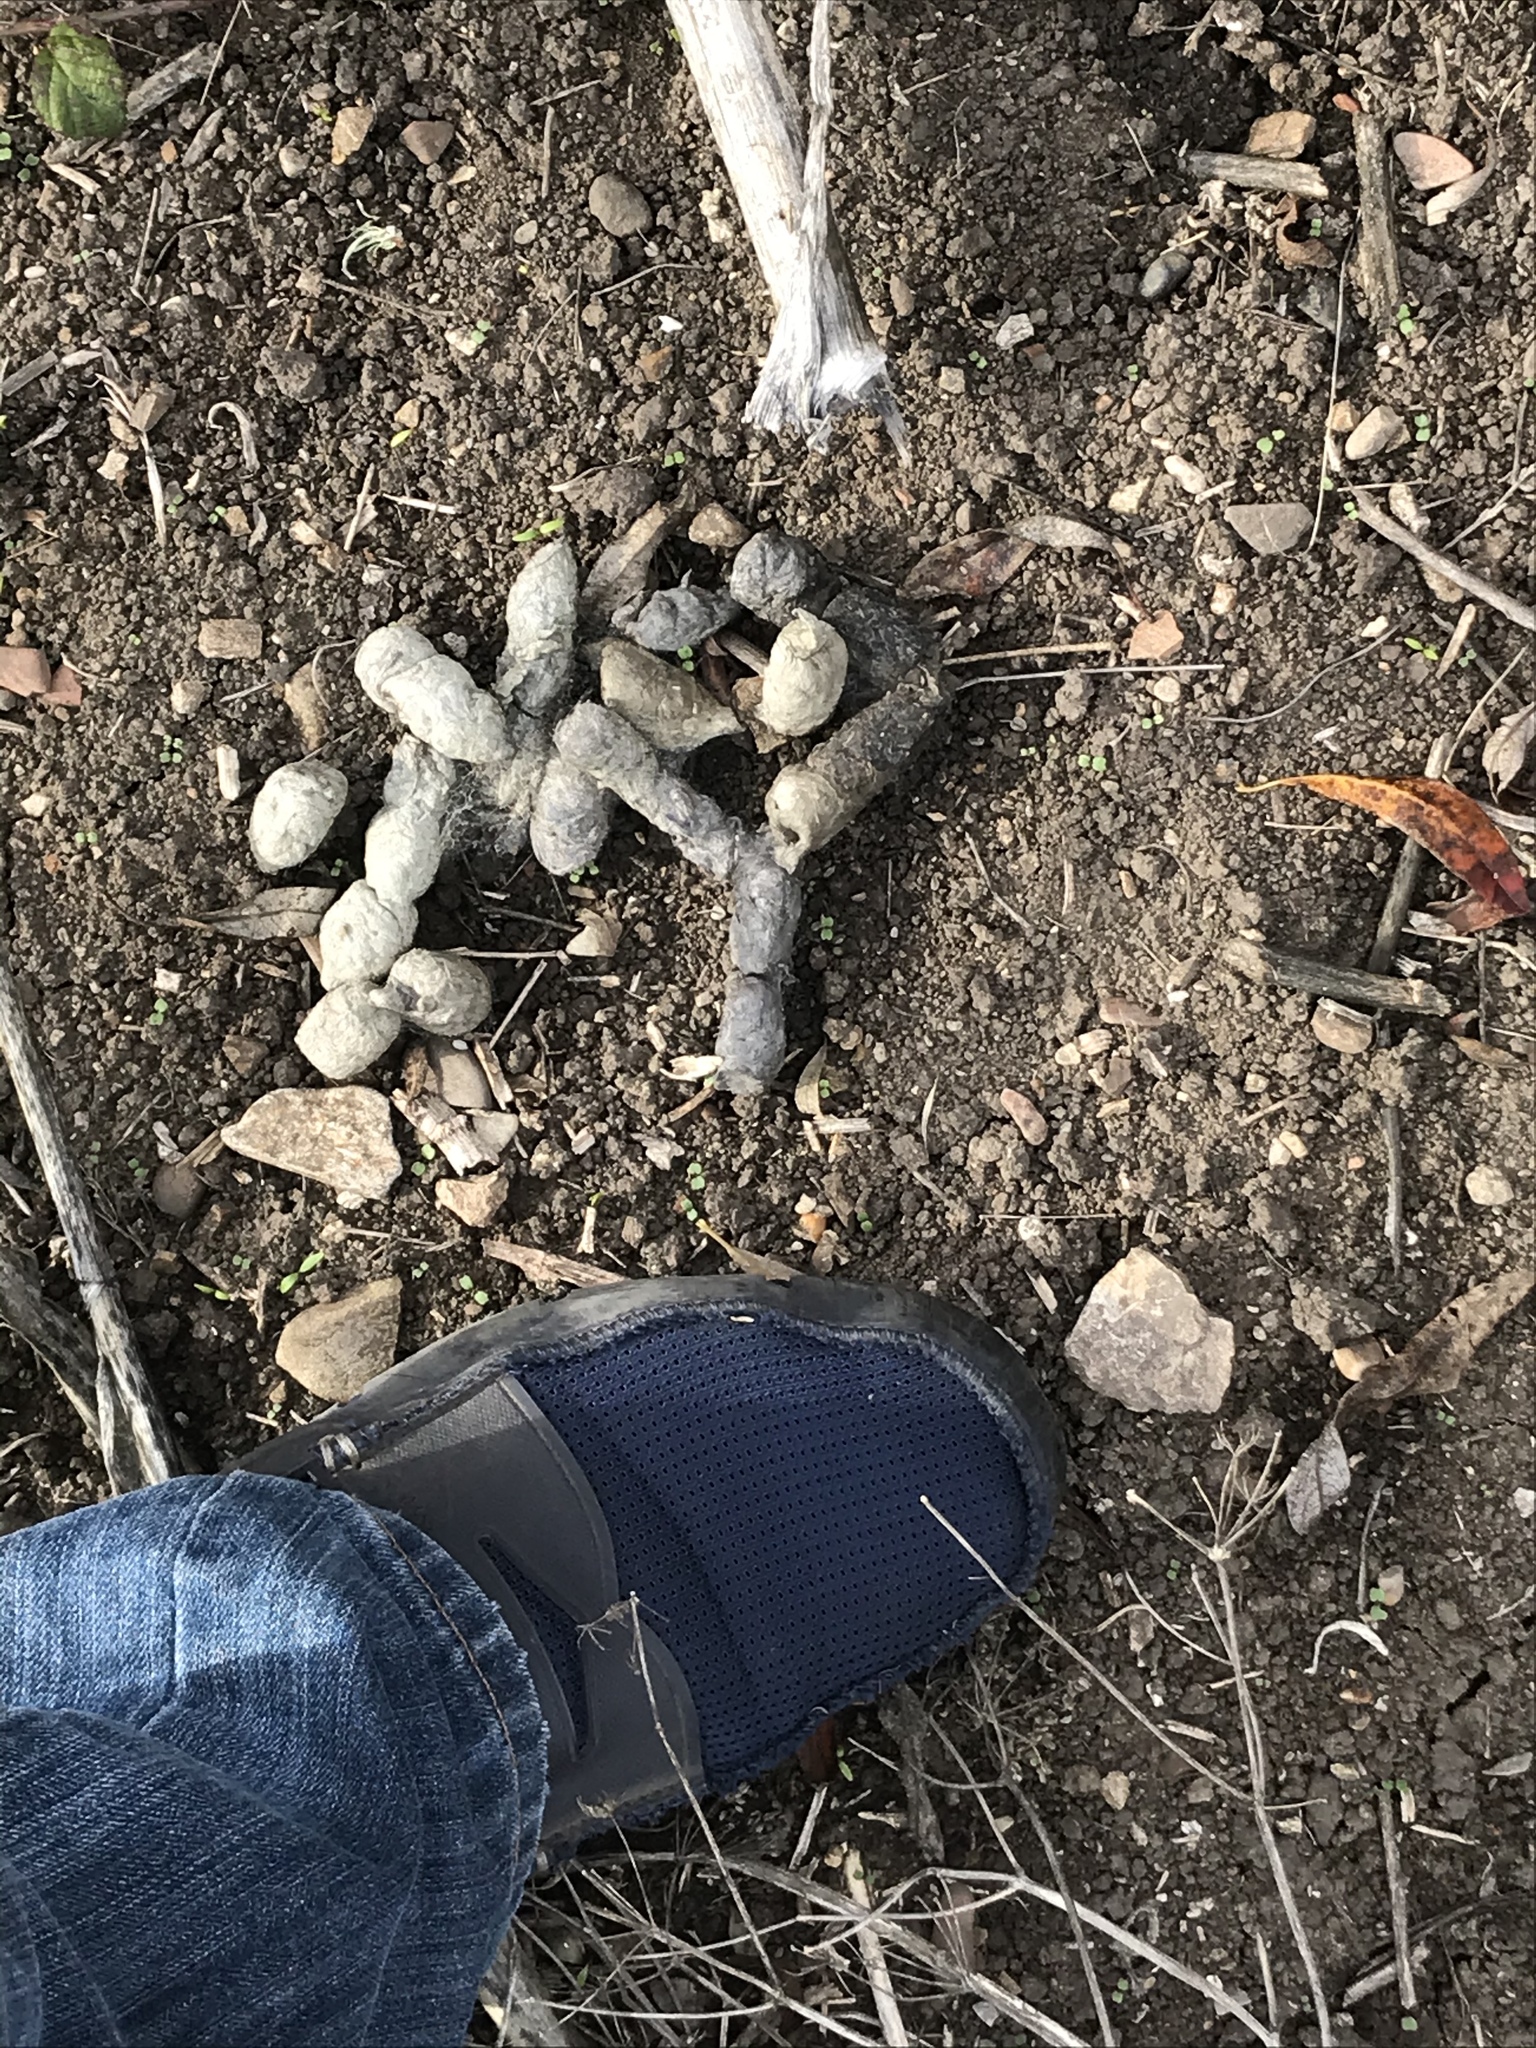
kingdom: Animalia
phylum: Chordata
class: Mammalia
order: Carnivora
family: Felidae
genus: Lynx
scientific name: Lynx rufus
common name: Bobcat
